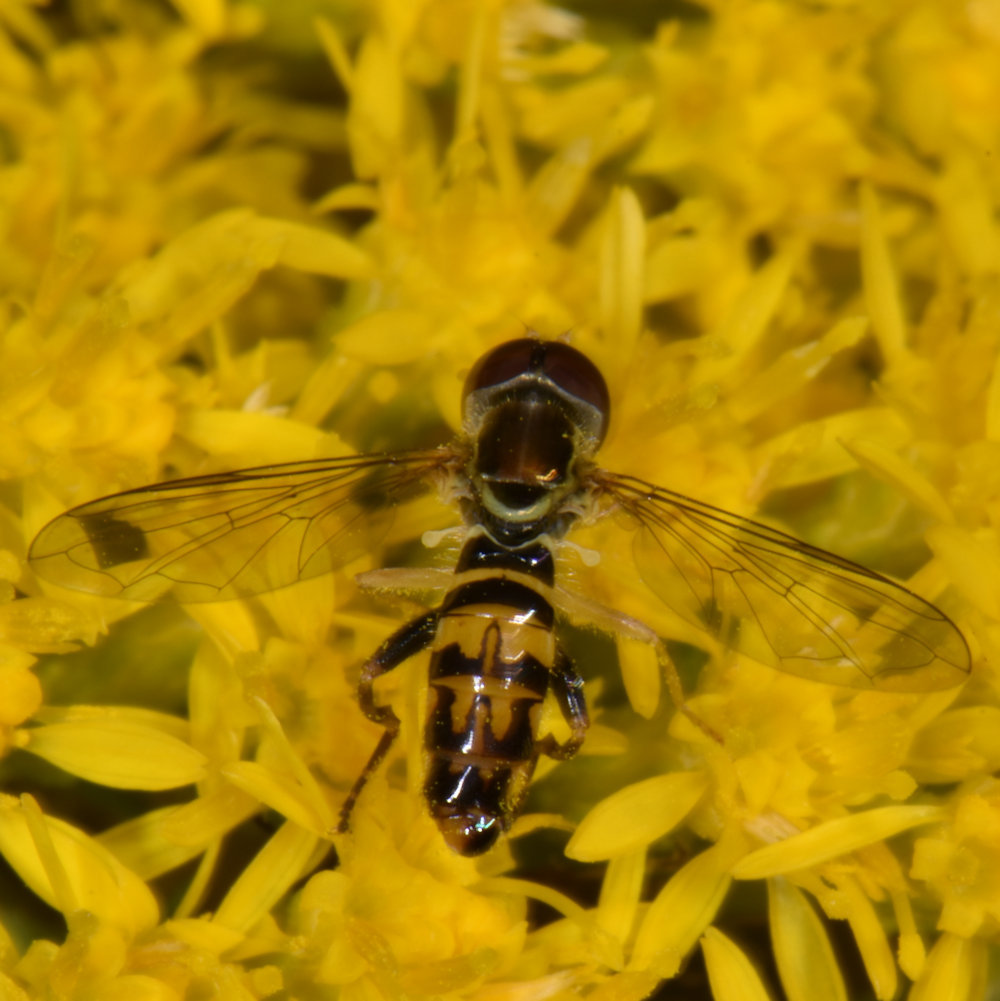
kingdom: Animalia
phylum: Arthropoda
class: Insecta
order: Diptera
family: Syrphidae
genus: Toxomerus
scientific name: Toxomerus geminatus
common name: Eastern calligrapher
